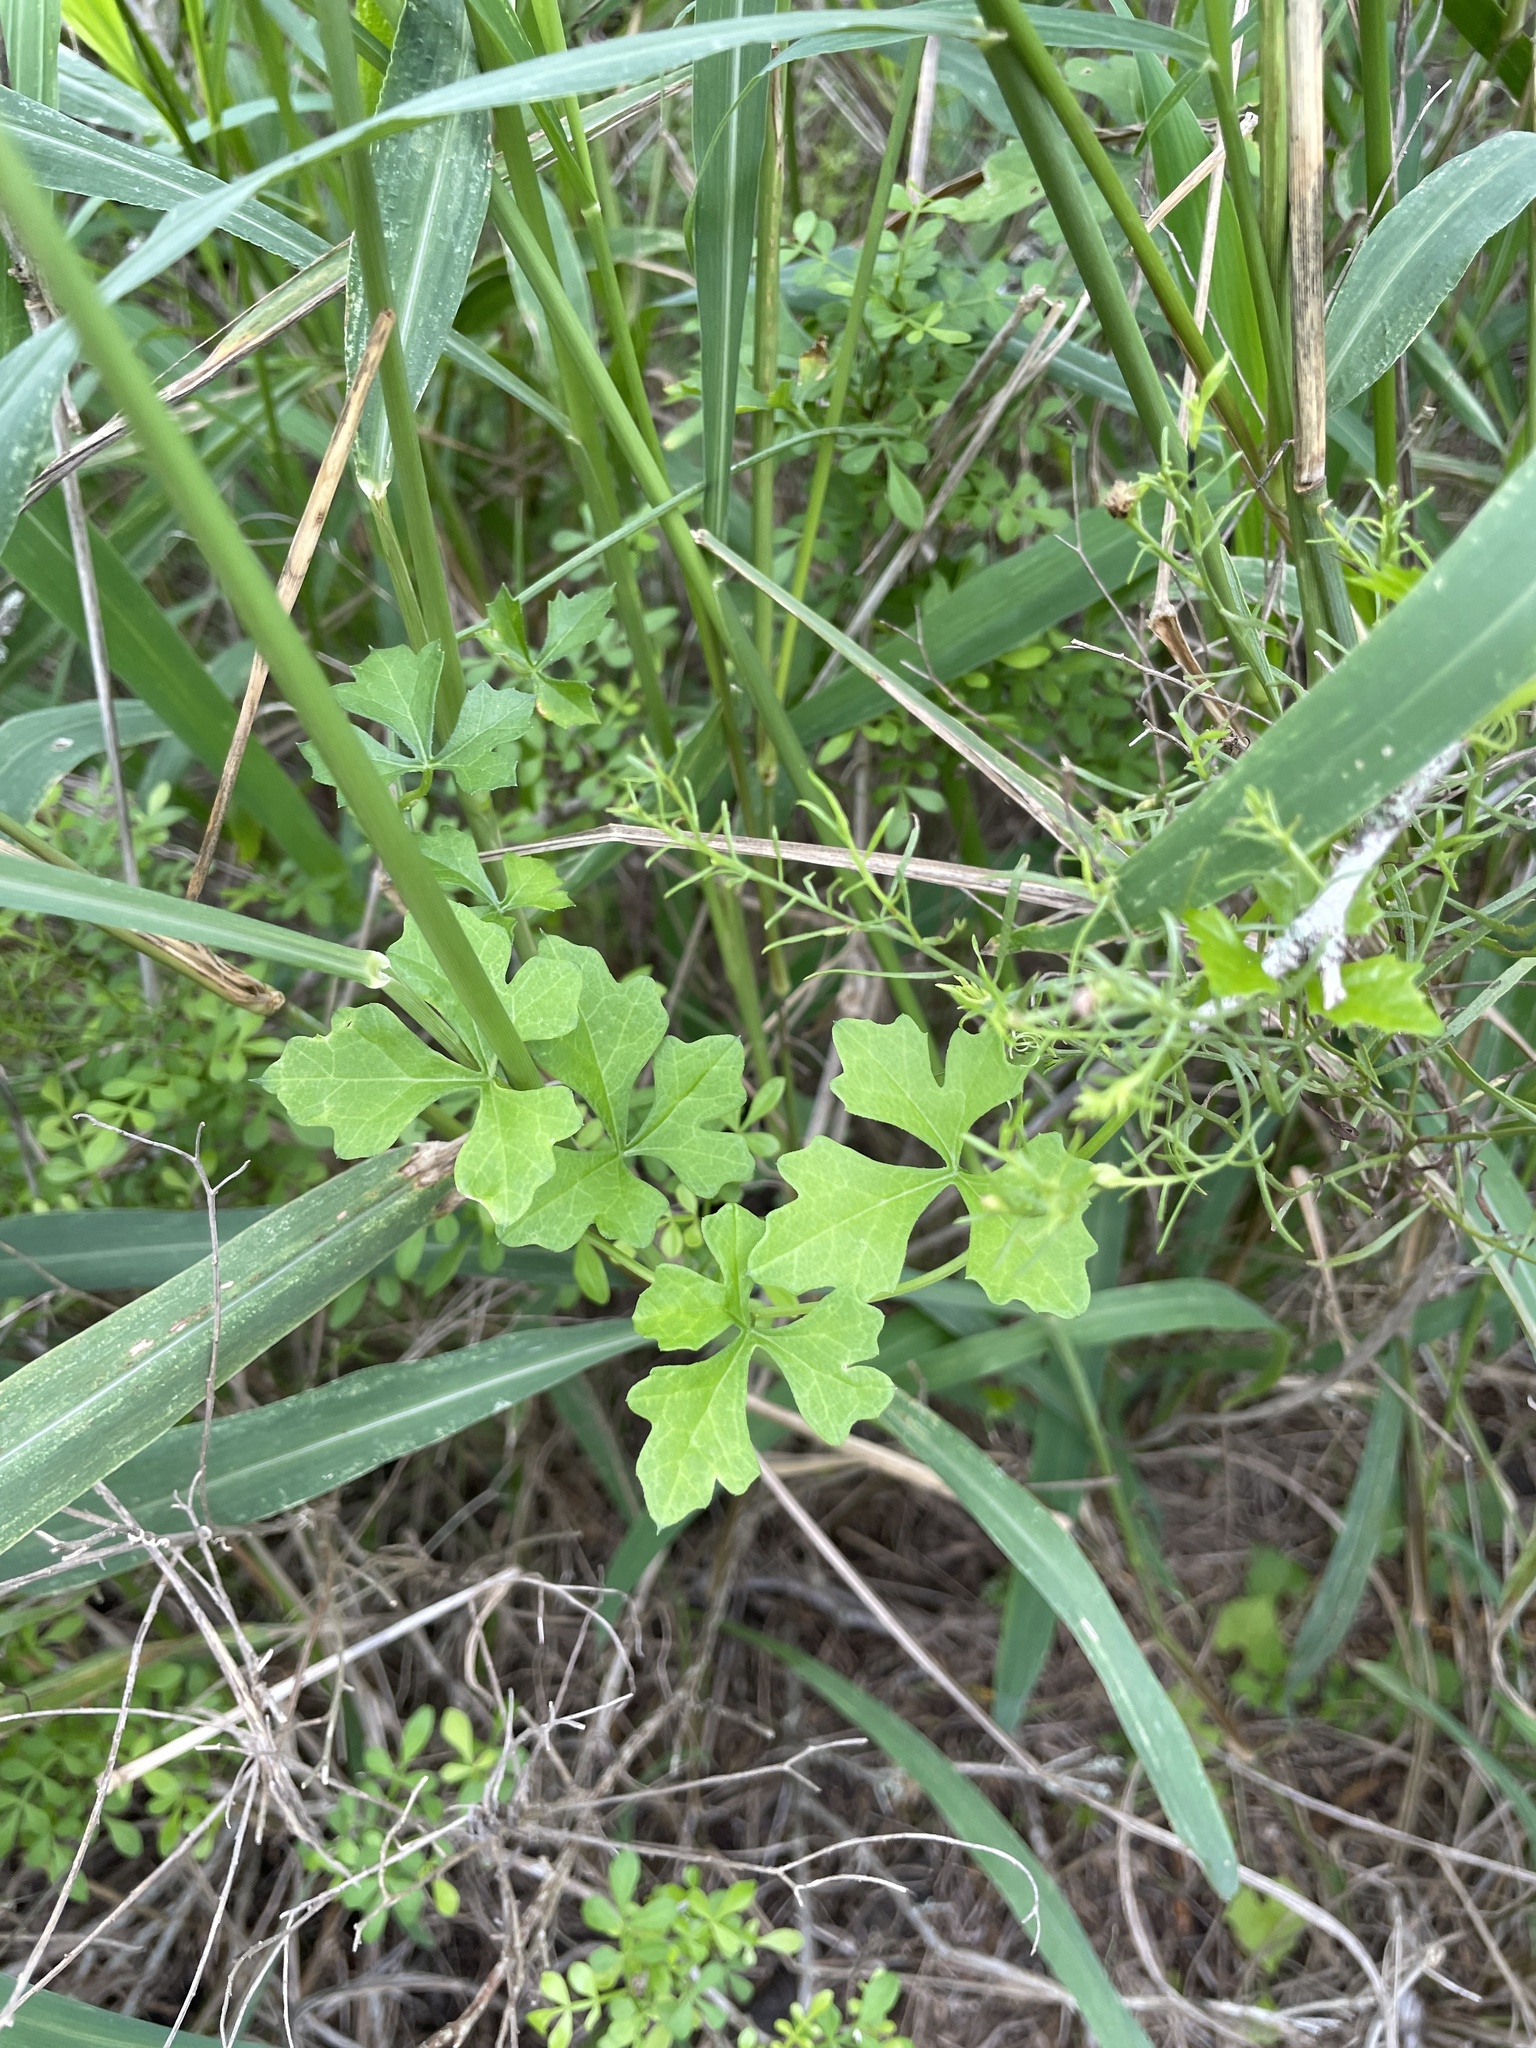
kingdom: Plantae
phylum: Tracheophyta
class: Magnoliopsida
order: Cucurbitales
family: Cucurbitaceae
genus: Ibervillea
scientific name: Ibervillea lindheimeri
